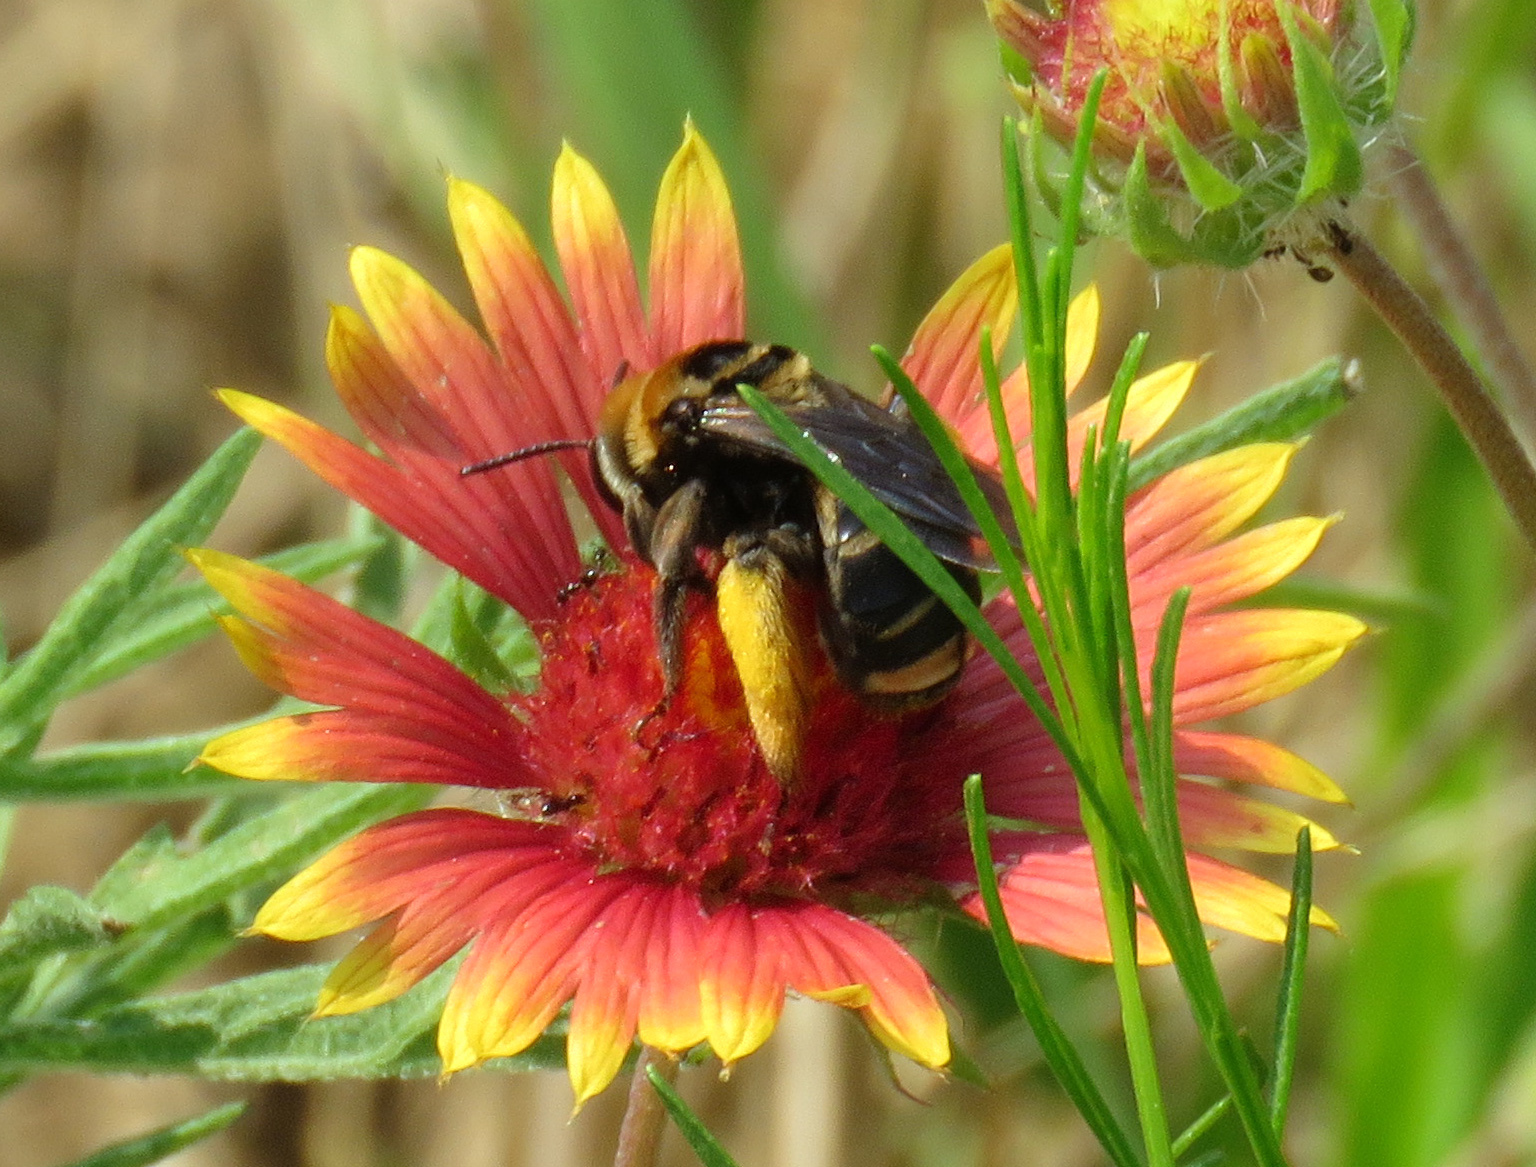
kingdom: Animalia
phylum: Arthropoda
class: Insecta
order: Hymenoptera
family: Apidae
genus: Svastra
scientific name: Svastra obliqua
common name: Oblique longhorn
